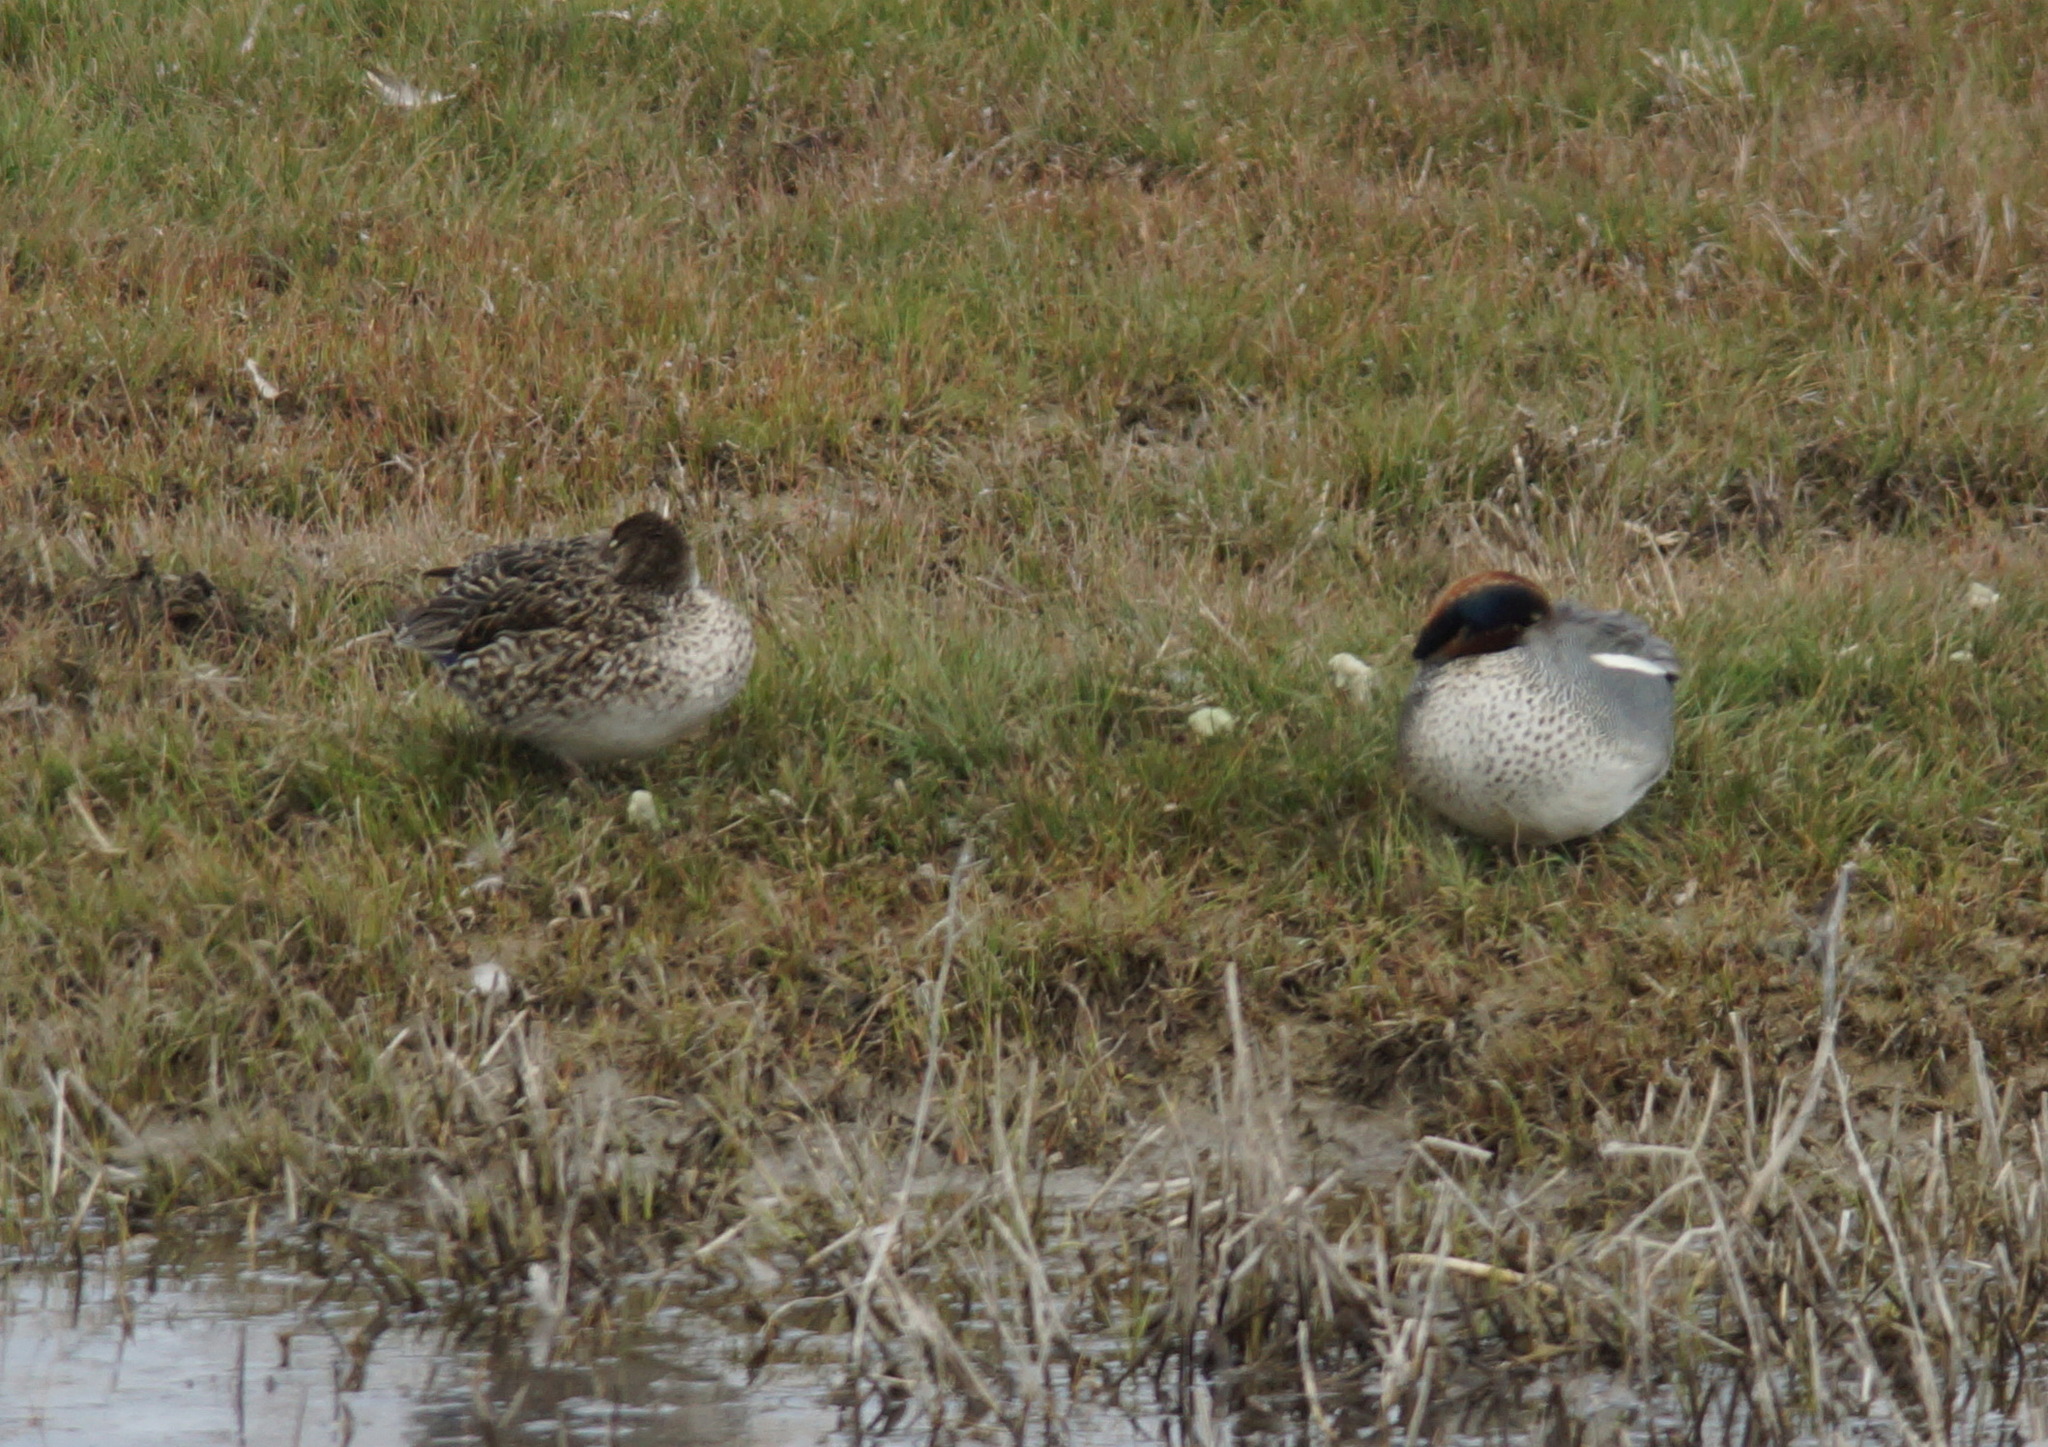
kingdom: Animalia
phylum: Chordata
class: Aves
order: Anseriformes
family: Anatidae
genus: Anas
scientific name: Anas crecca
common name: Eurasian teal
